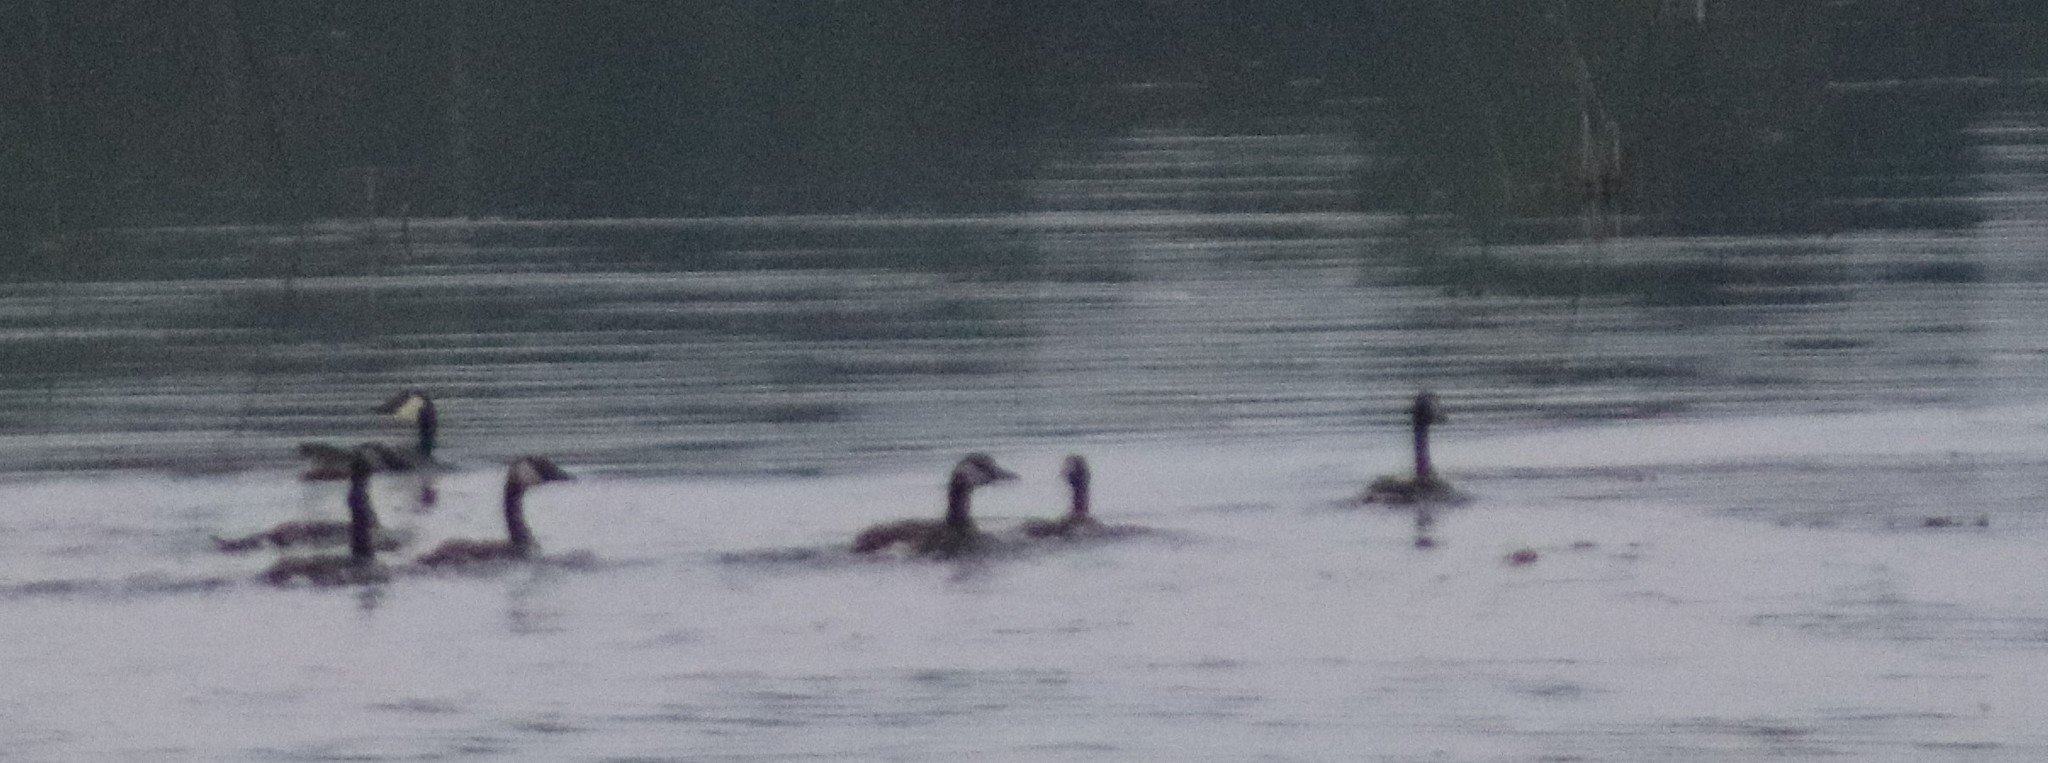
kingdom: Animalia
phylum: Chordata
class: Aves
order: Anseriformes
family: Anatidae
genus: Branta
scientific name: Branta canadensis
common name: Canada goose
